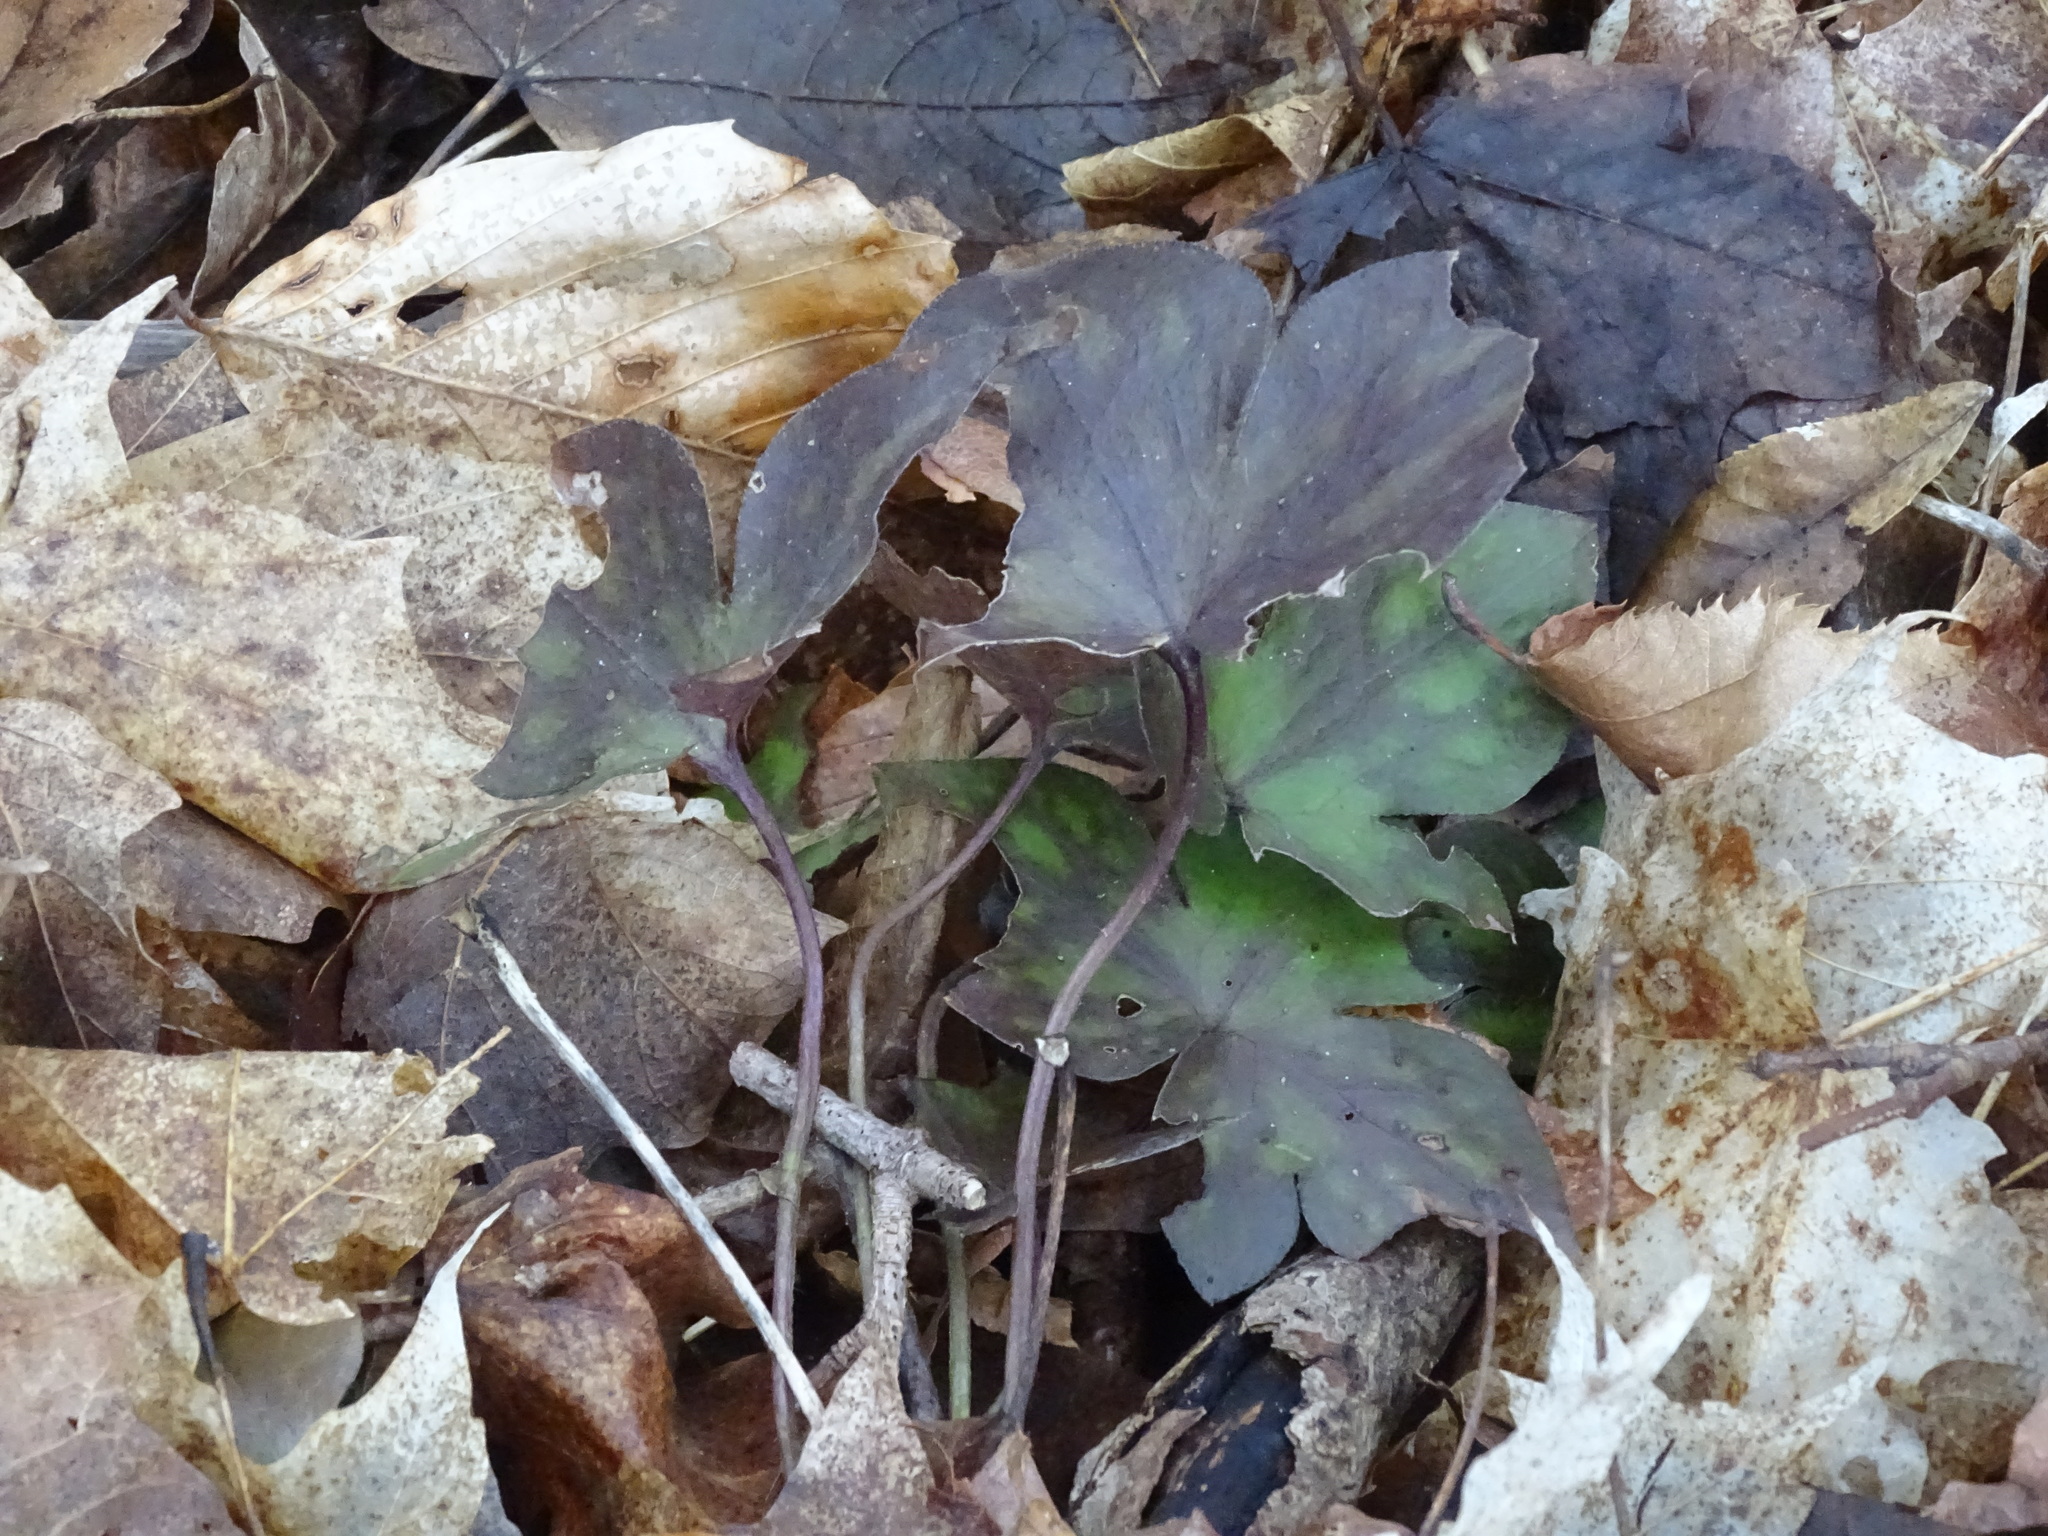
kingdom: Plantae
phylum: Tracheophyta
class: Magnoliopsida
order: Ranunculales
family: Ranunculaceae
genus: Hepatica
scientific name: Hepatica acutiloba
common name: Sharp-lobed hepatica
